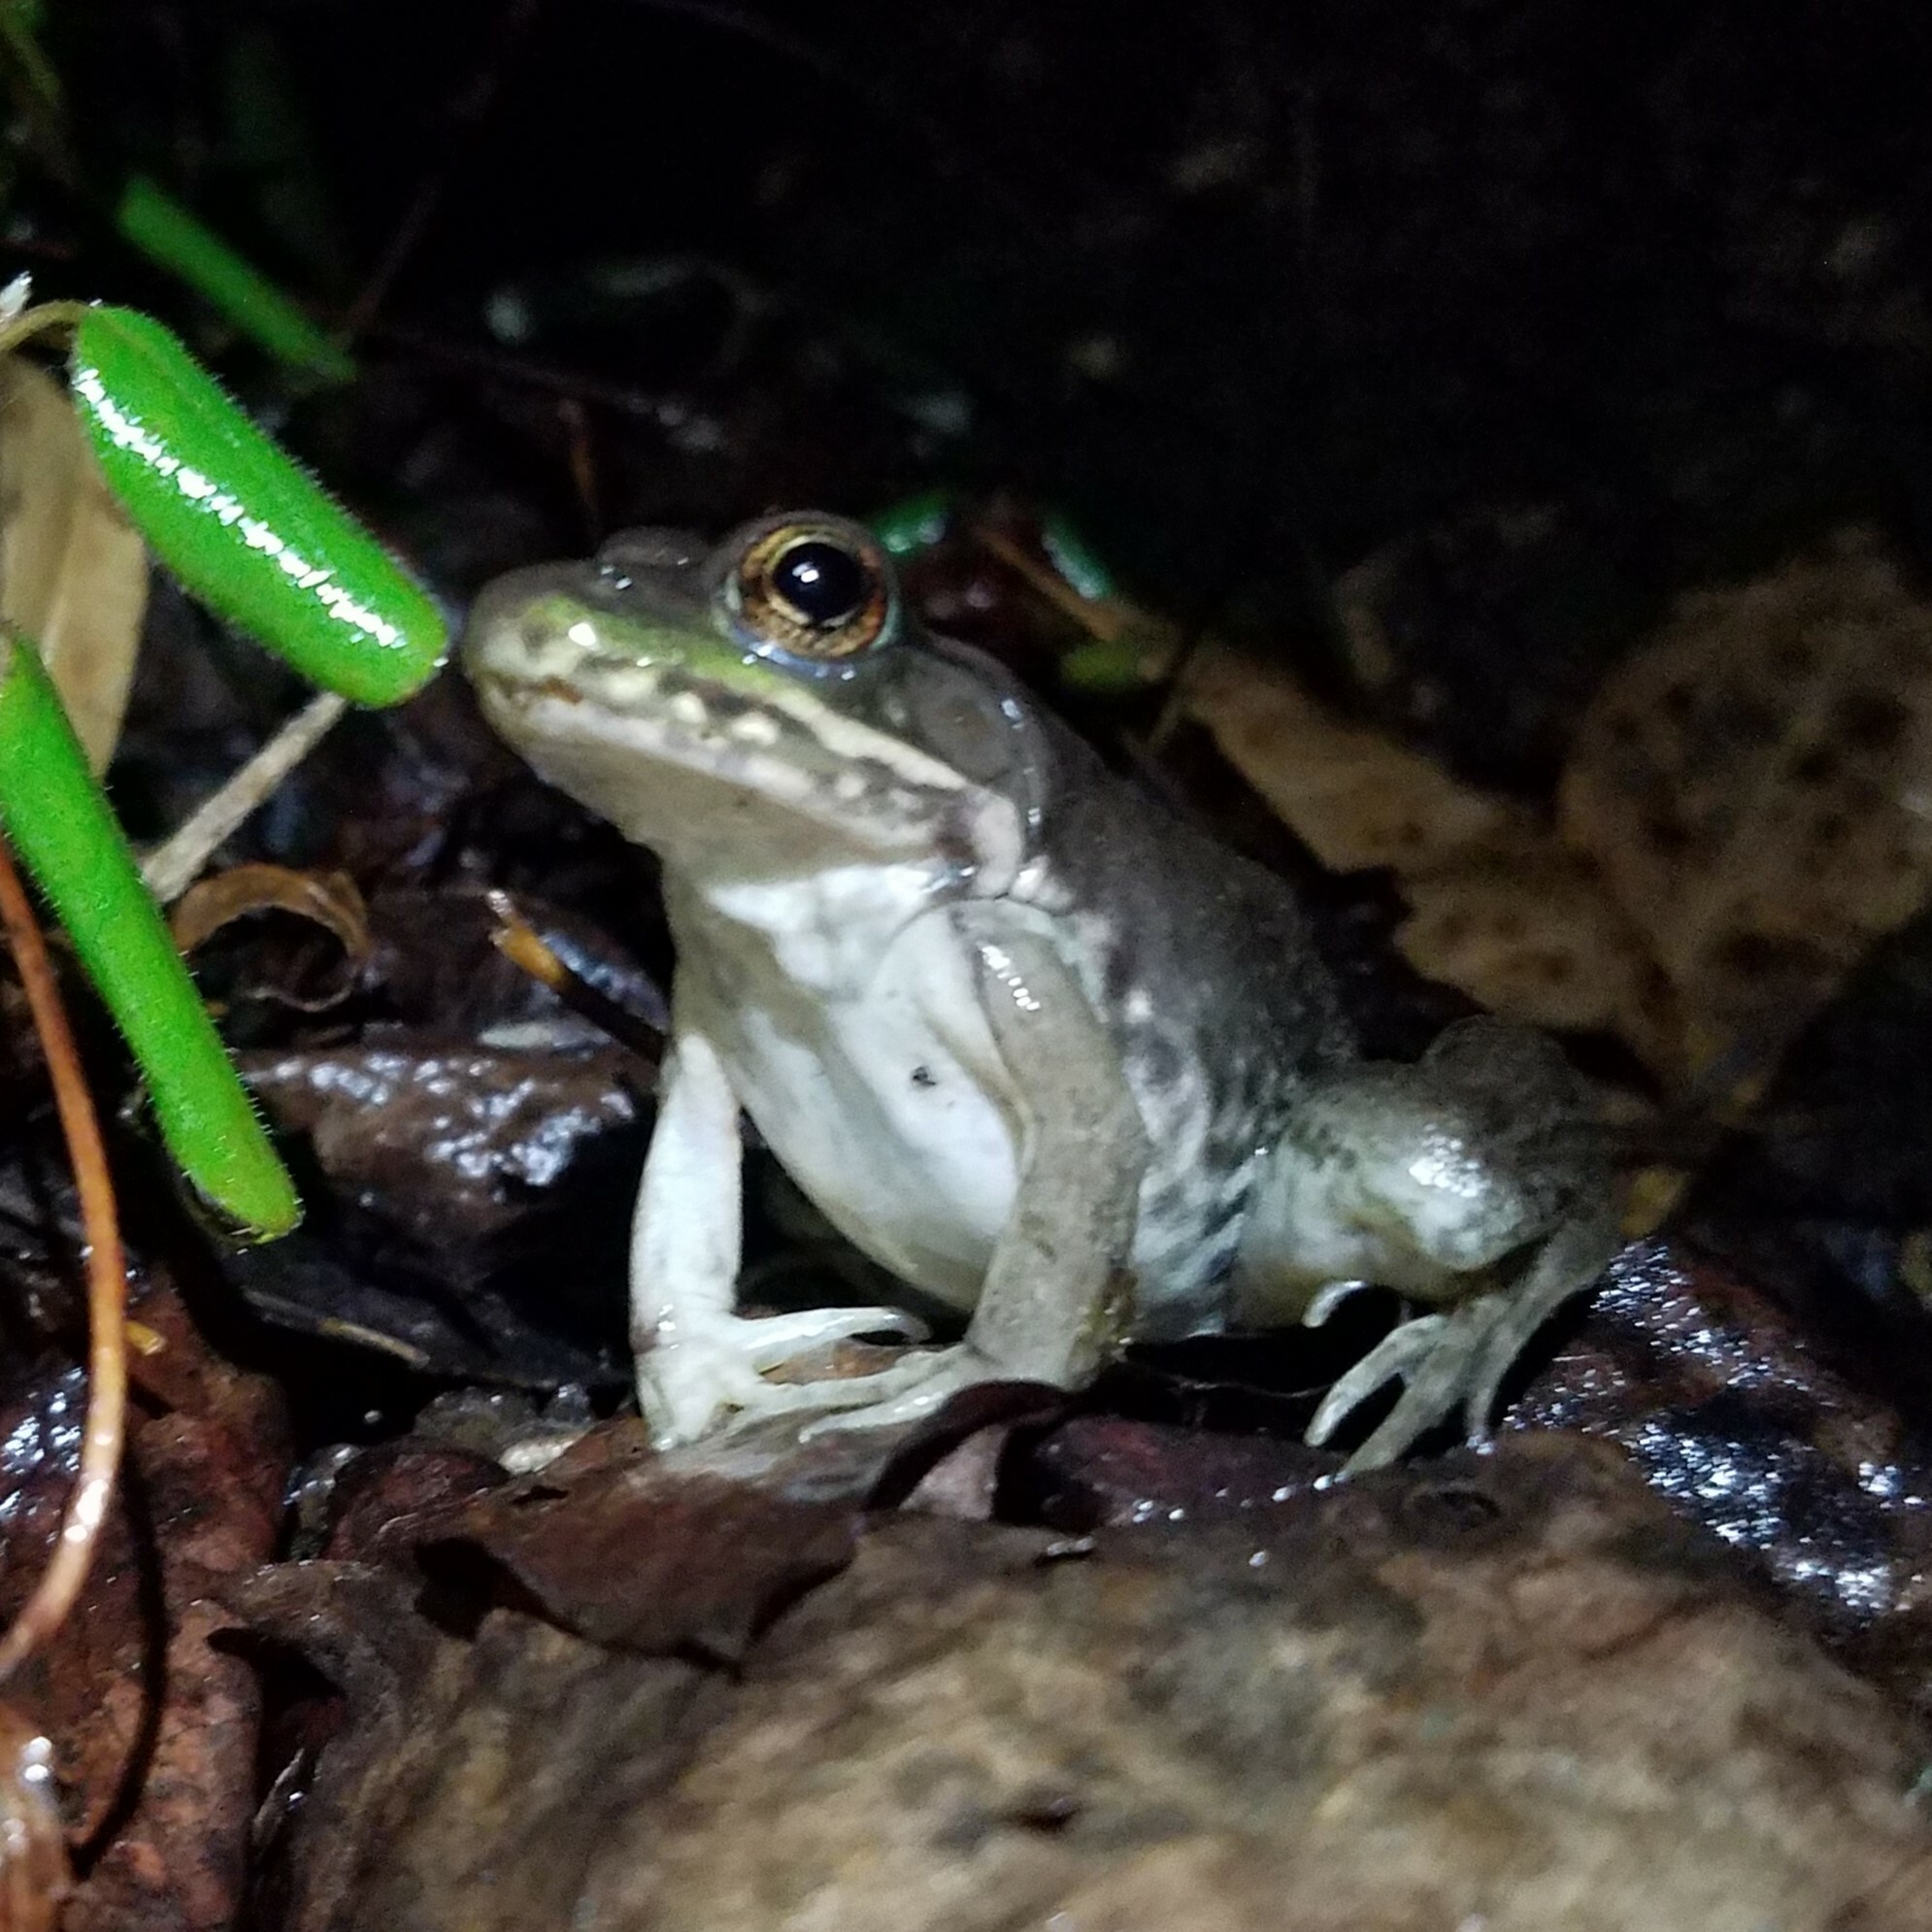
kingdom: Animalia
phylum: Chordata
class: Amphibia
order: Anura
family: Ranidae
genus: Lithobates
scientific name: Lithobates clamitans
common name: Green frog
